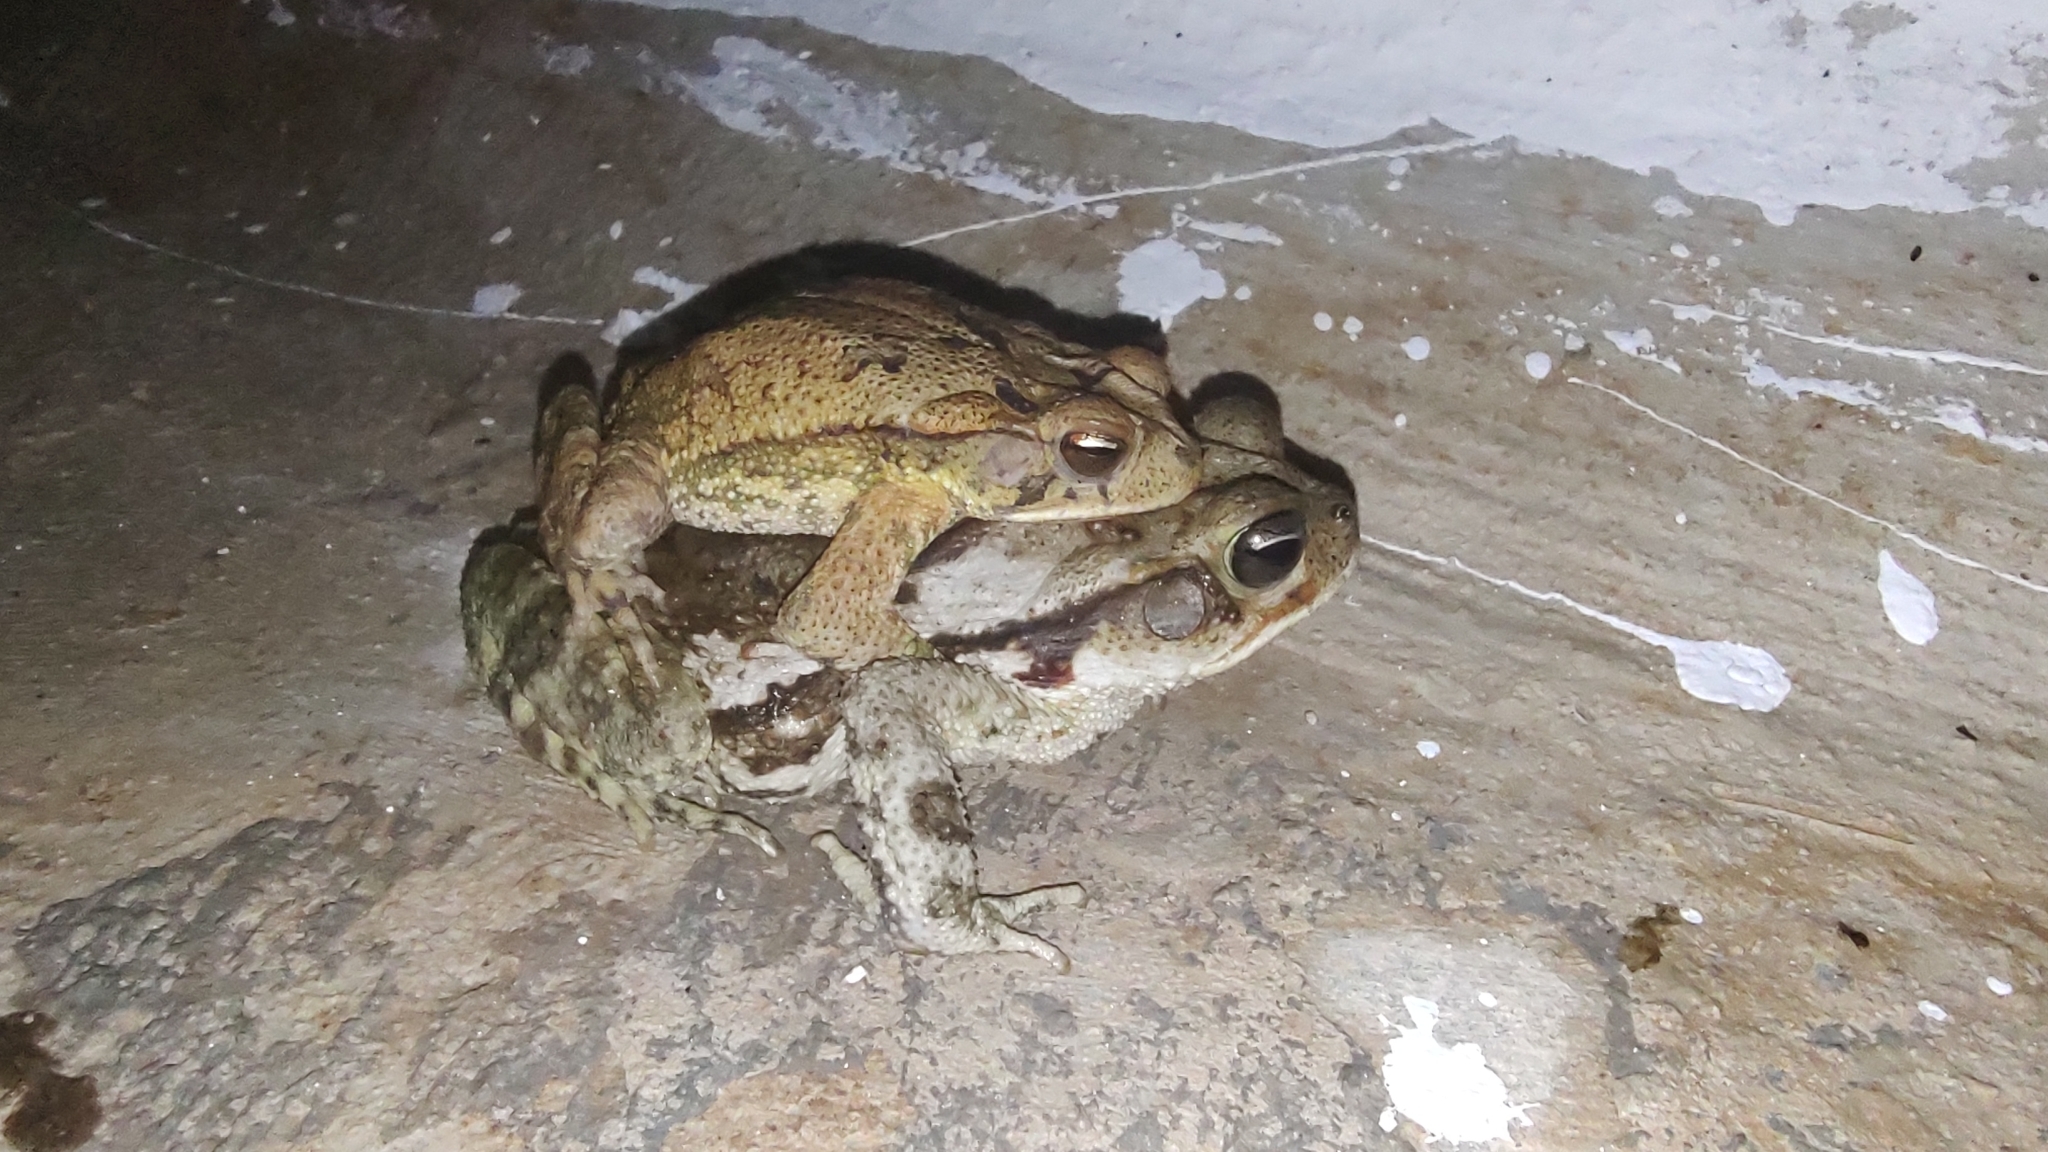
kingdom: Animalia
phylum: Chordata
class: Amphibia
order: Anura
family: Bufonidae
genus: Incilius
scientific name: Incilius valliceps
